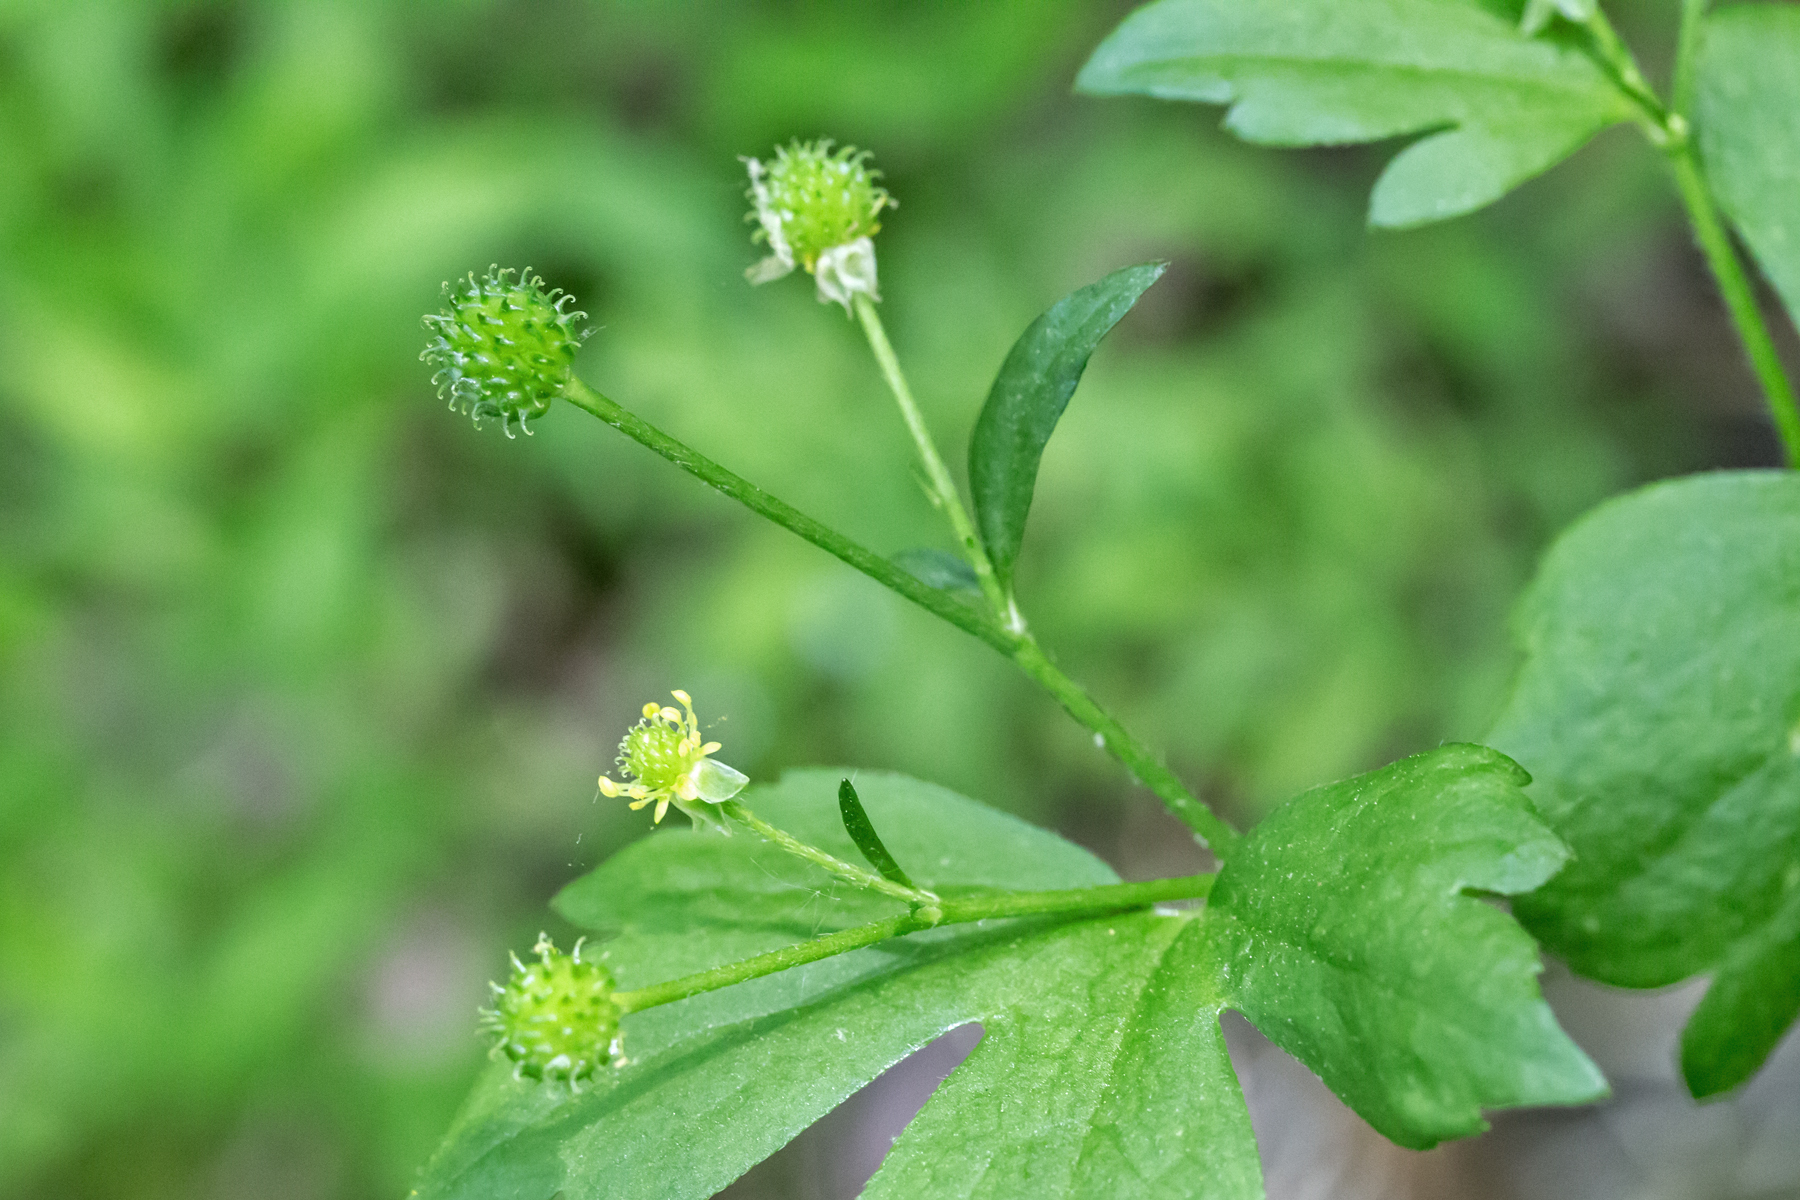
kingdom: Plantae
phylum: Tracheophyta
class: Magnoliopsida
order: Ranunculales
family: Ranunculaceae
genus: Ranunculus
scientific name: Ranunculus recurvatus
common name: Blisterwort
